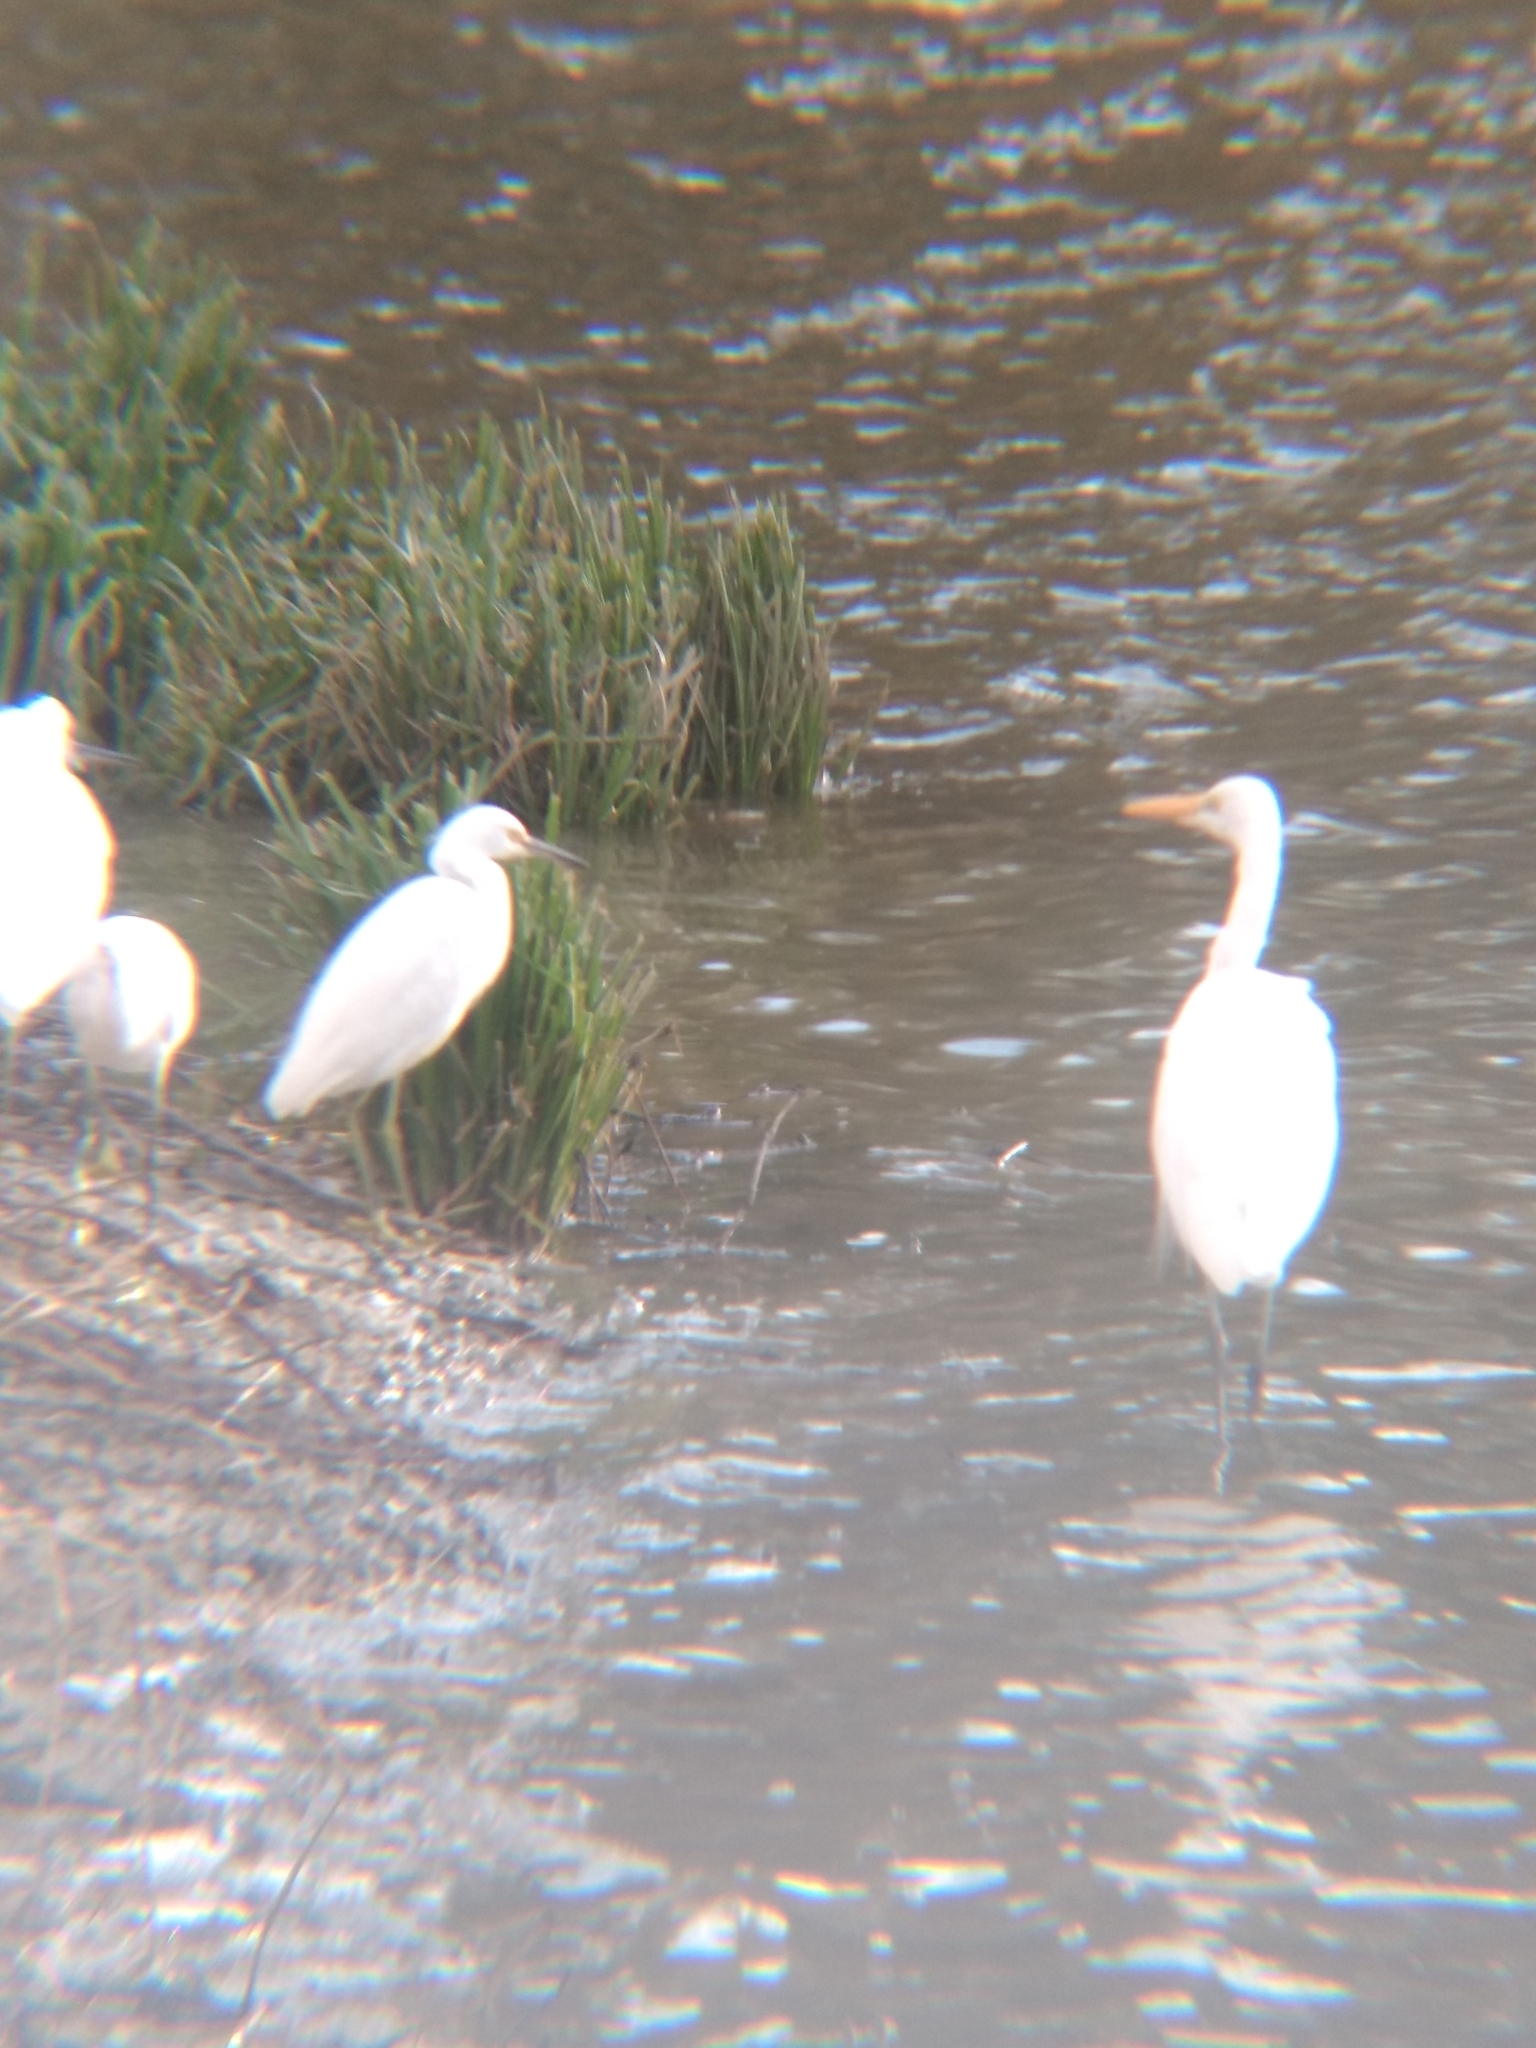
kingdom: Animalia
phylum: Chordata
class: Aves
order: Pelecaniformes
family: Ardeidae
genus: Ardea
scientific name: Ardea alba
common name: Great egret
